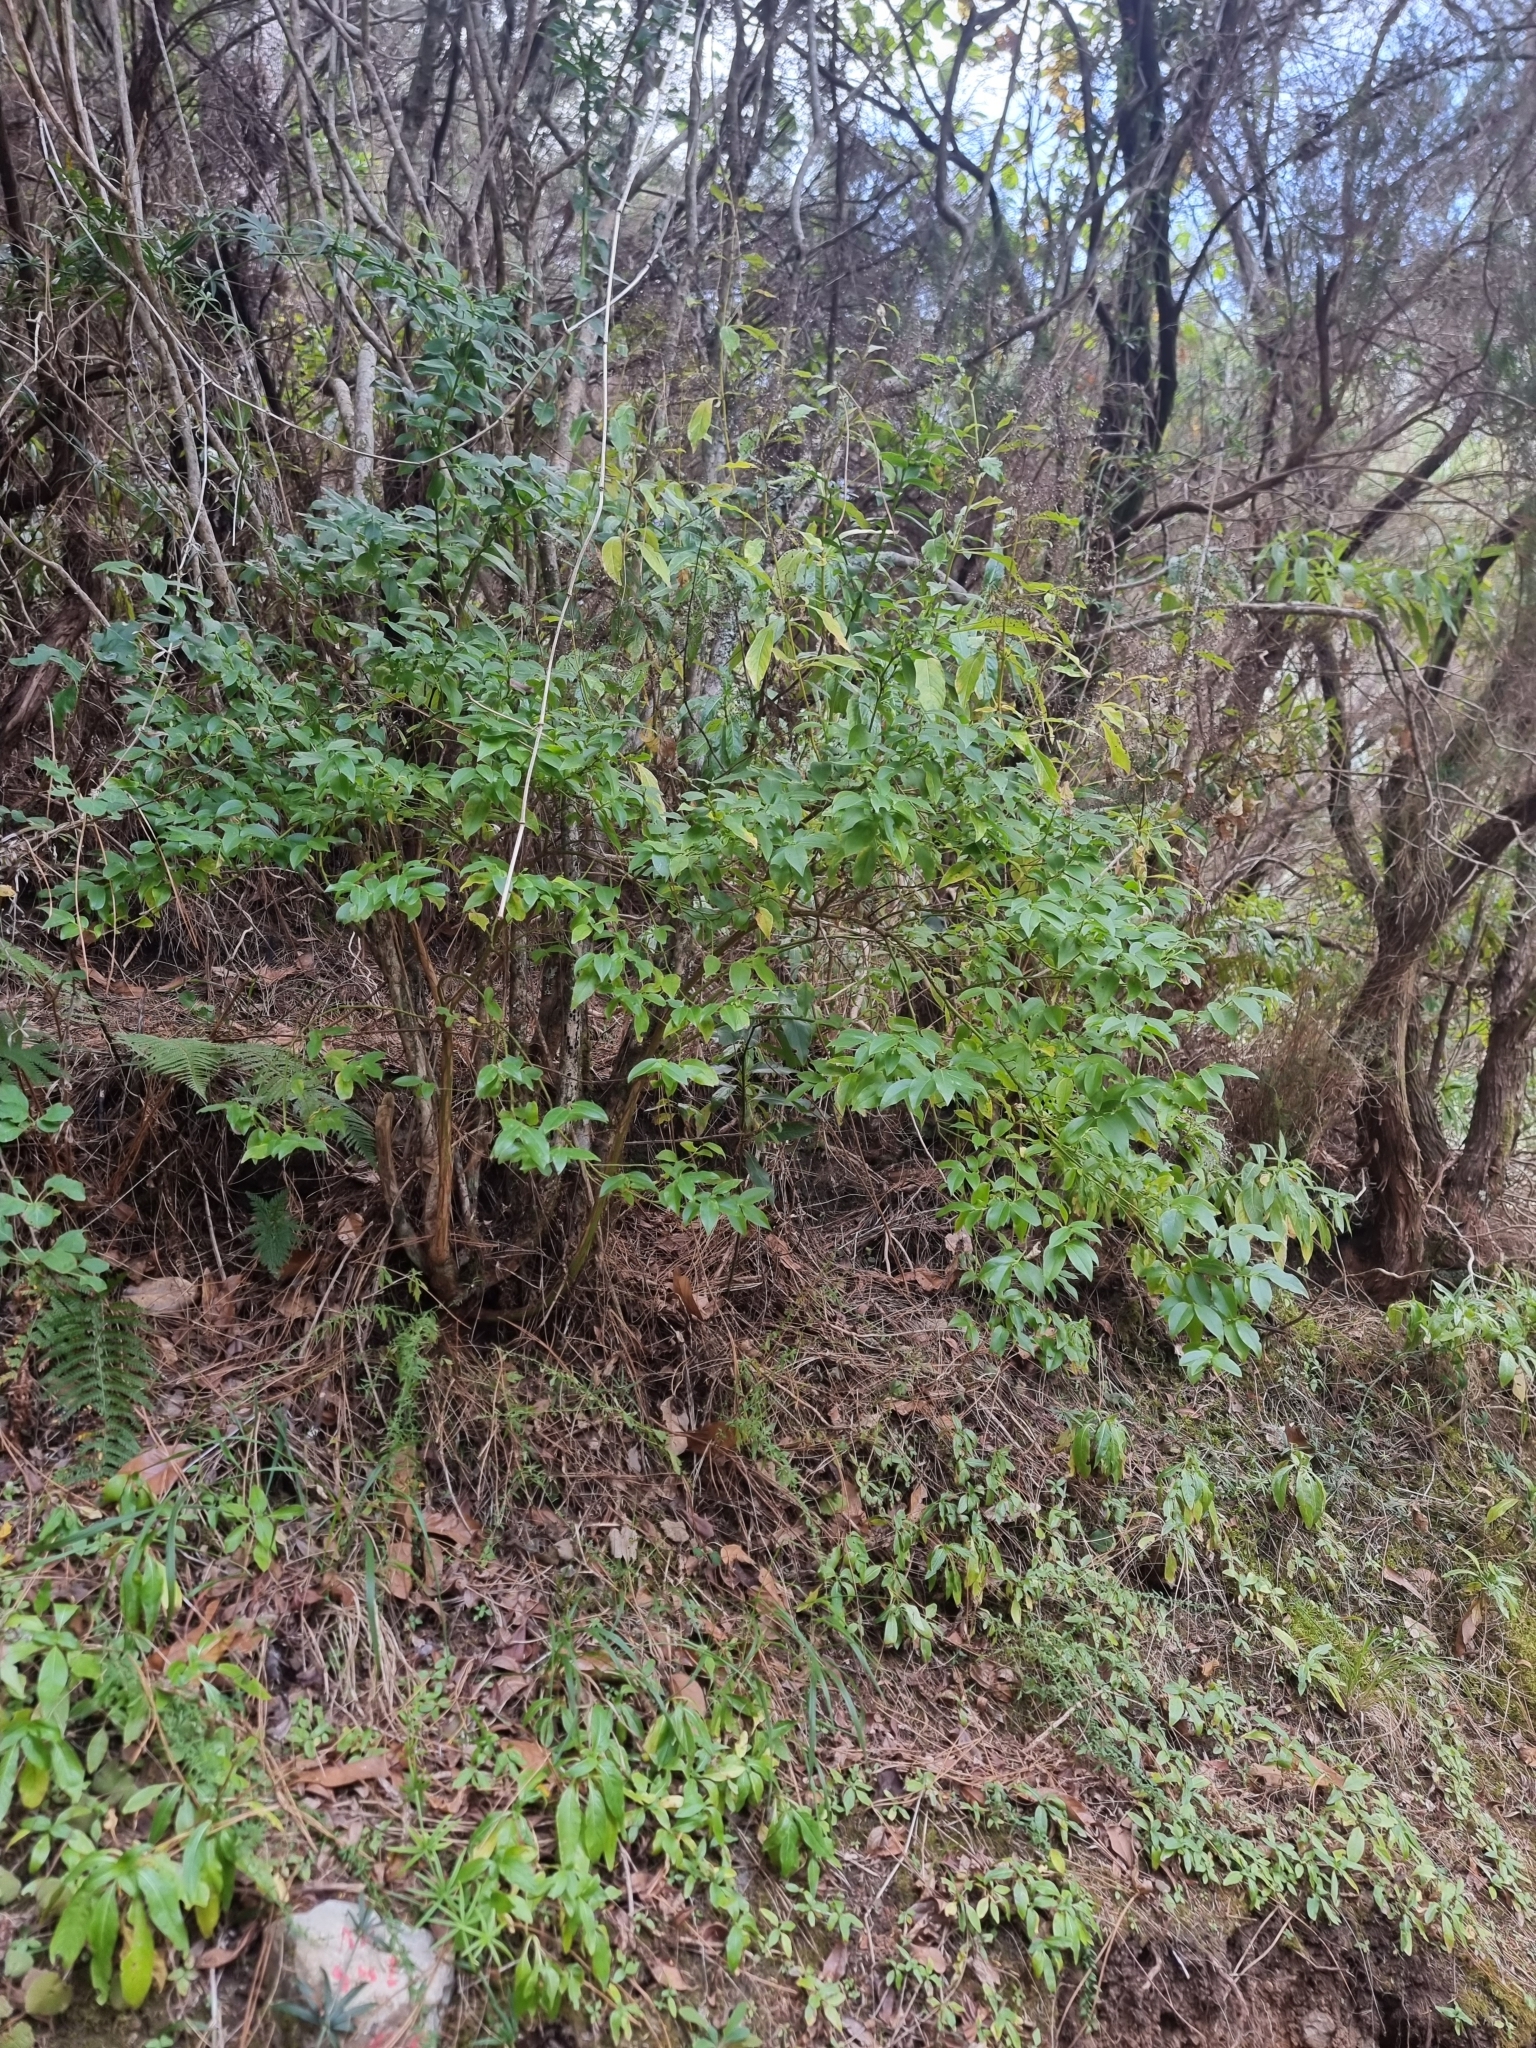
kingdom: Plantae
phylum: Tracheophyta
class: Magnoliopsida
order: Ericales
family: Ericaceae
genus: Vaccinium
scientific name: Vaccinium padifolium
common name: Madeiran blueberry
